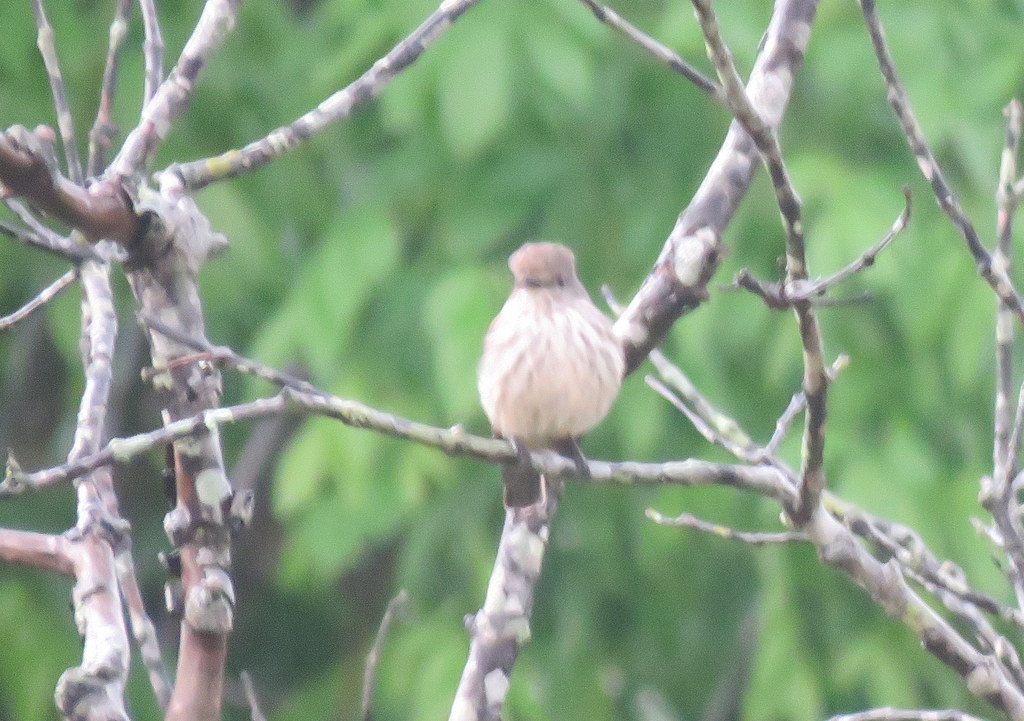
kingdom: Animalia
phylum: Chordata
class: Aves
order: Passeriformes
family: Tyrannidae
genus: Pyrocephalus
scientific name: Pyrocephalus rubinus
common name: Vermilion flycatcher
